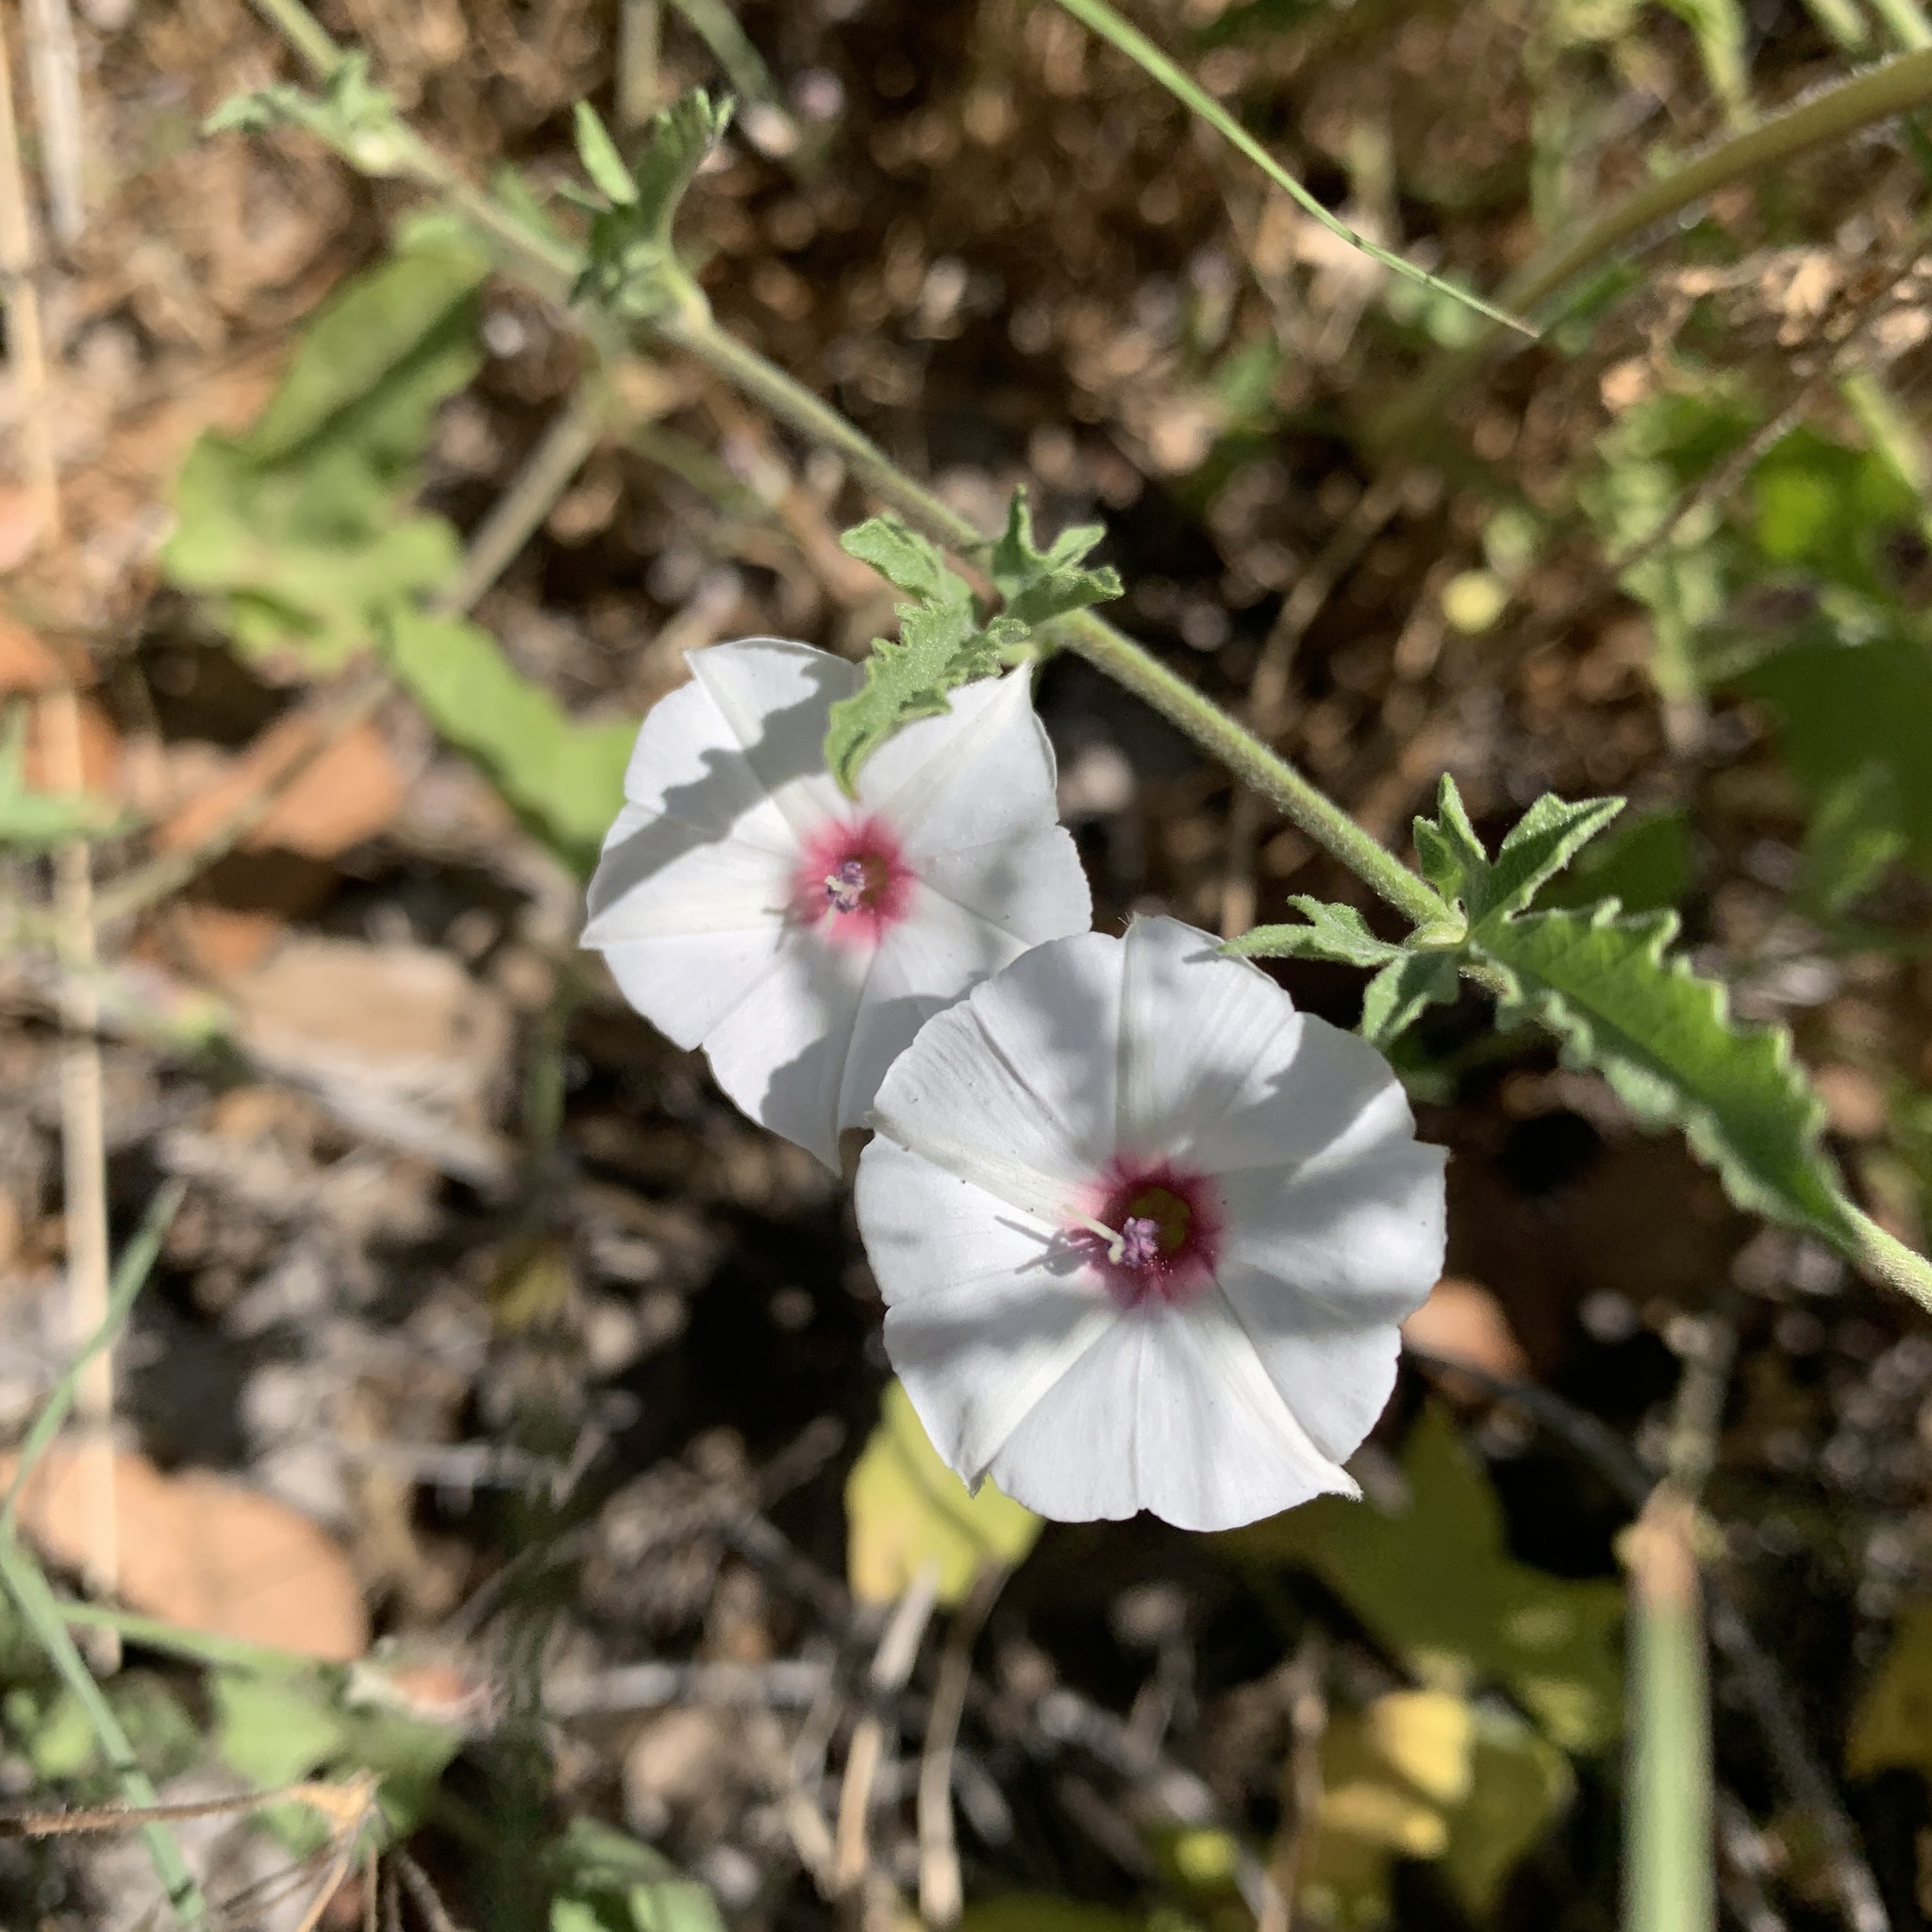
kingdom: Plantae
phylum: Tracheophyta
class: Magnoliopsida
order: Solanales
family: Convolvulaceae
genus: Convolvulus
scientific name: Convolvulus equitans
